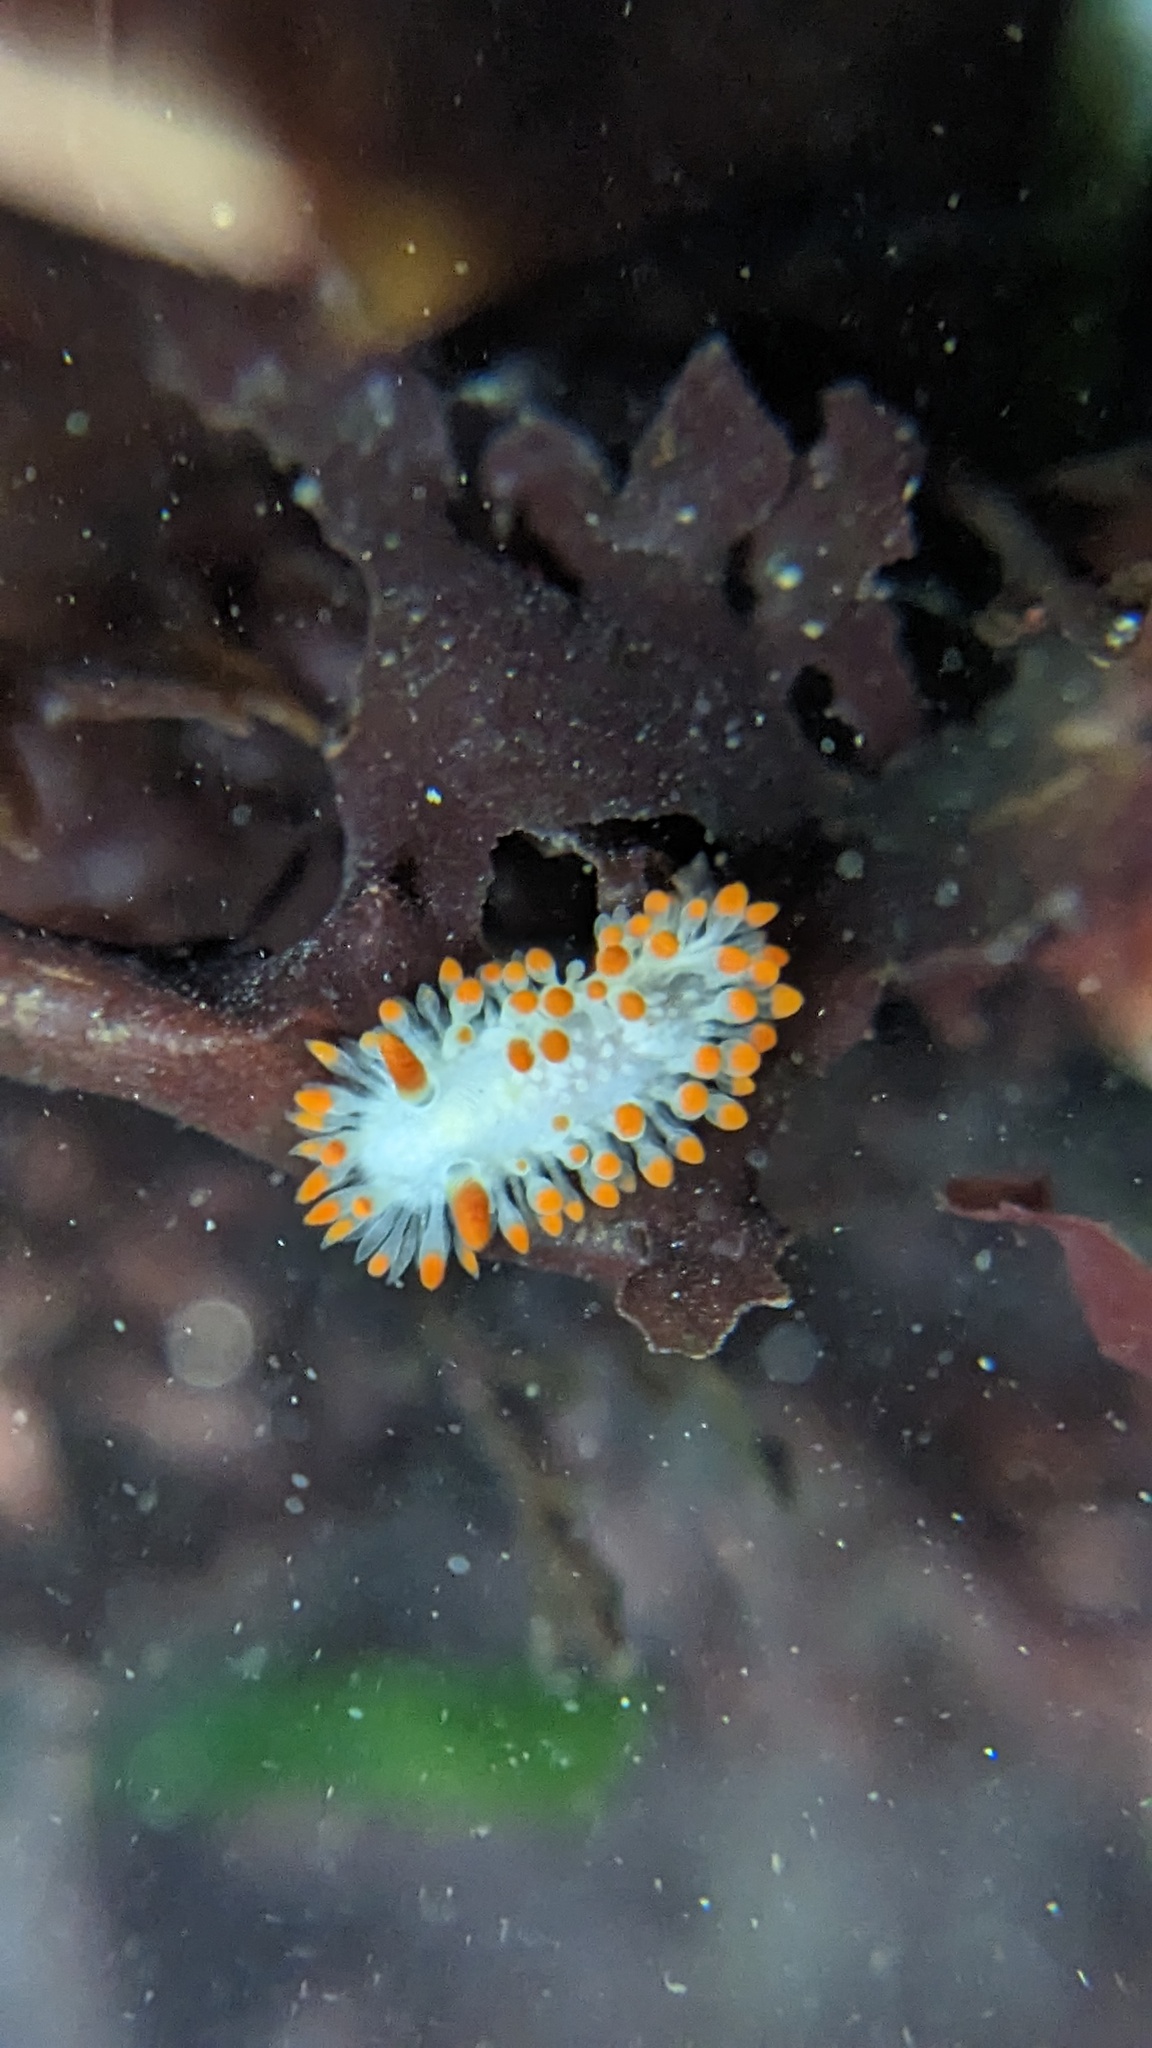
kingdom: Animalia
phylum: Mollusca
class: Gastropoda
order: Nudibranchia
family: Polyceridae
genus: Limacia
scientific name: Limacia cockerelli
